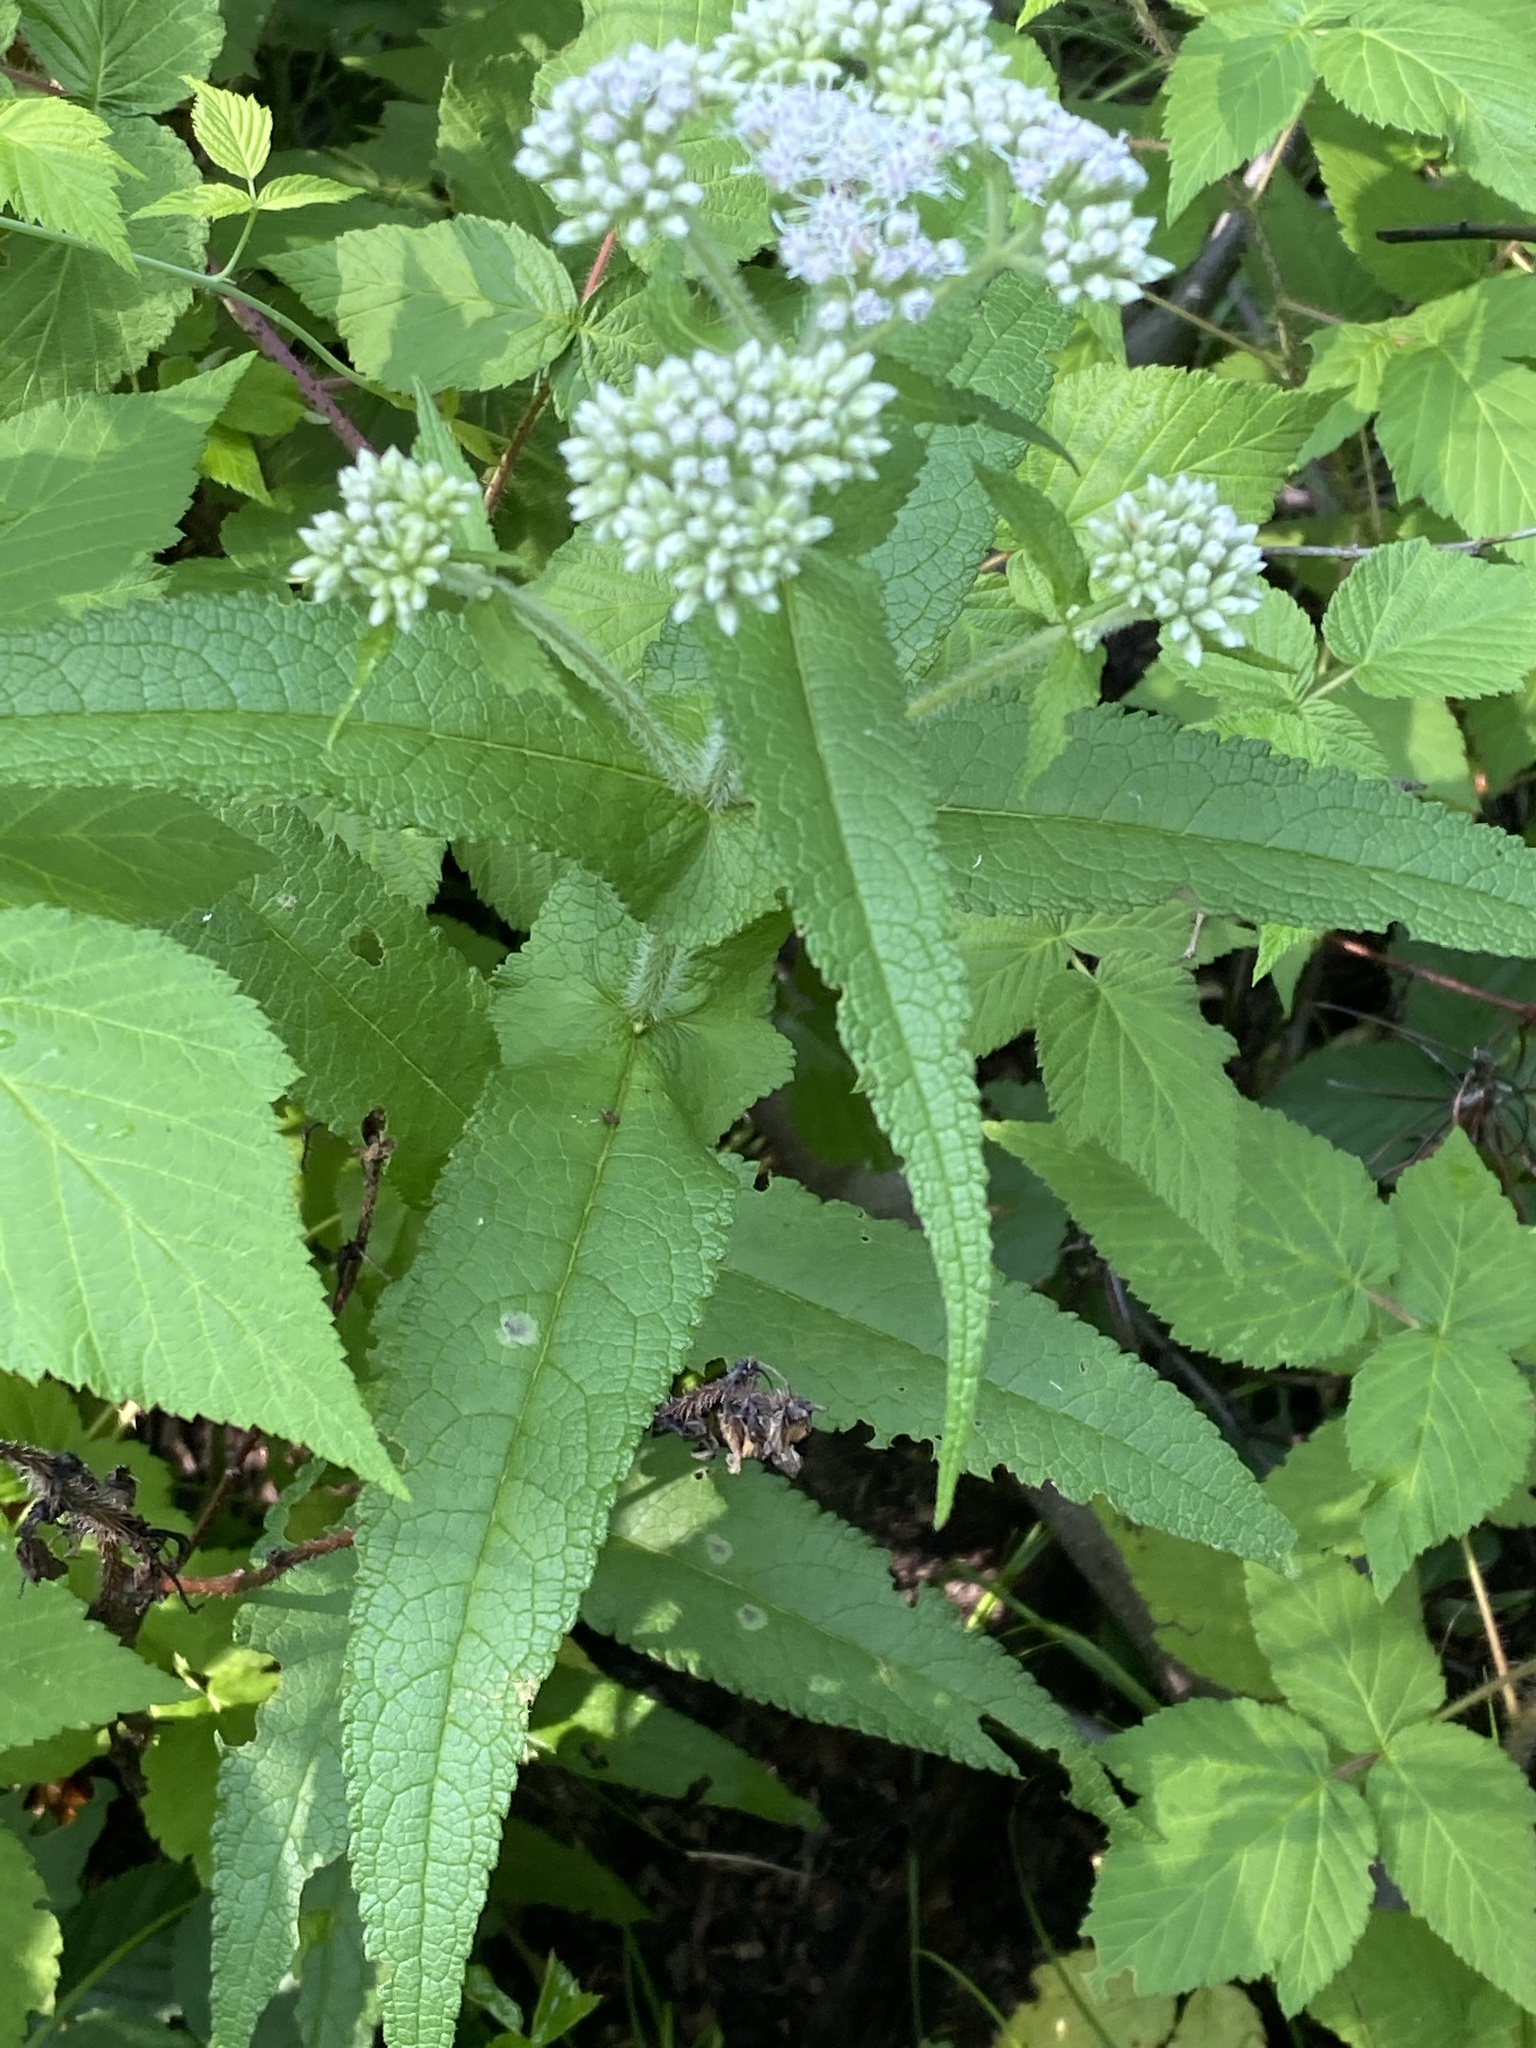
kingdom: Plantae
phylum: Tracheophyta
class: Magnoliopsida
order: Asterales
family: Asteraceae
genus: Eupatorium
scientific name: Eupatorium perfoliatum
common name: Boneset
